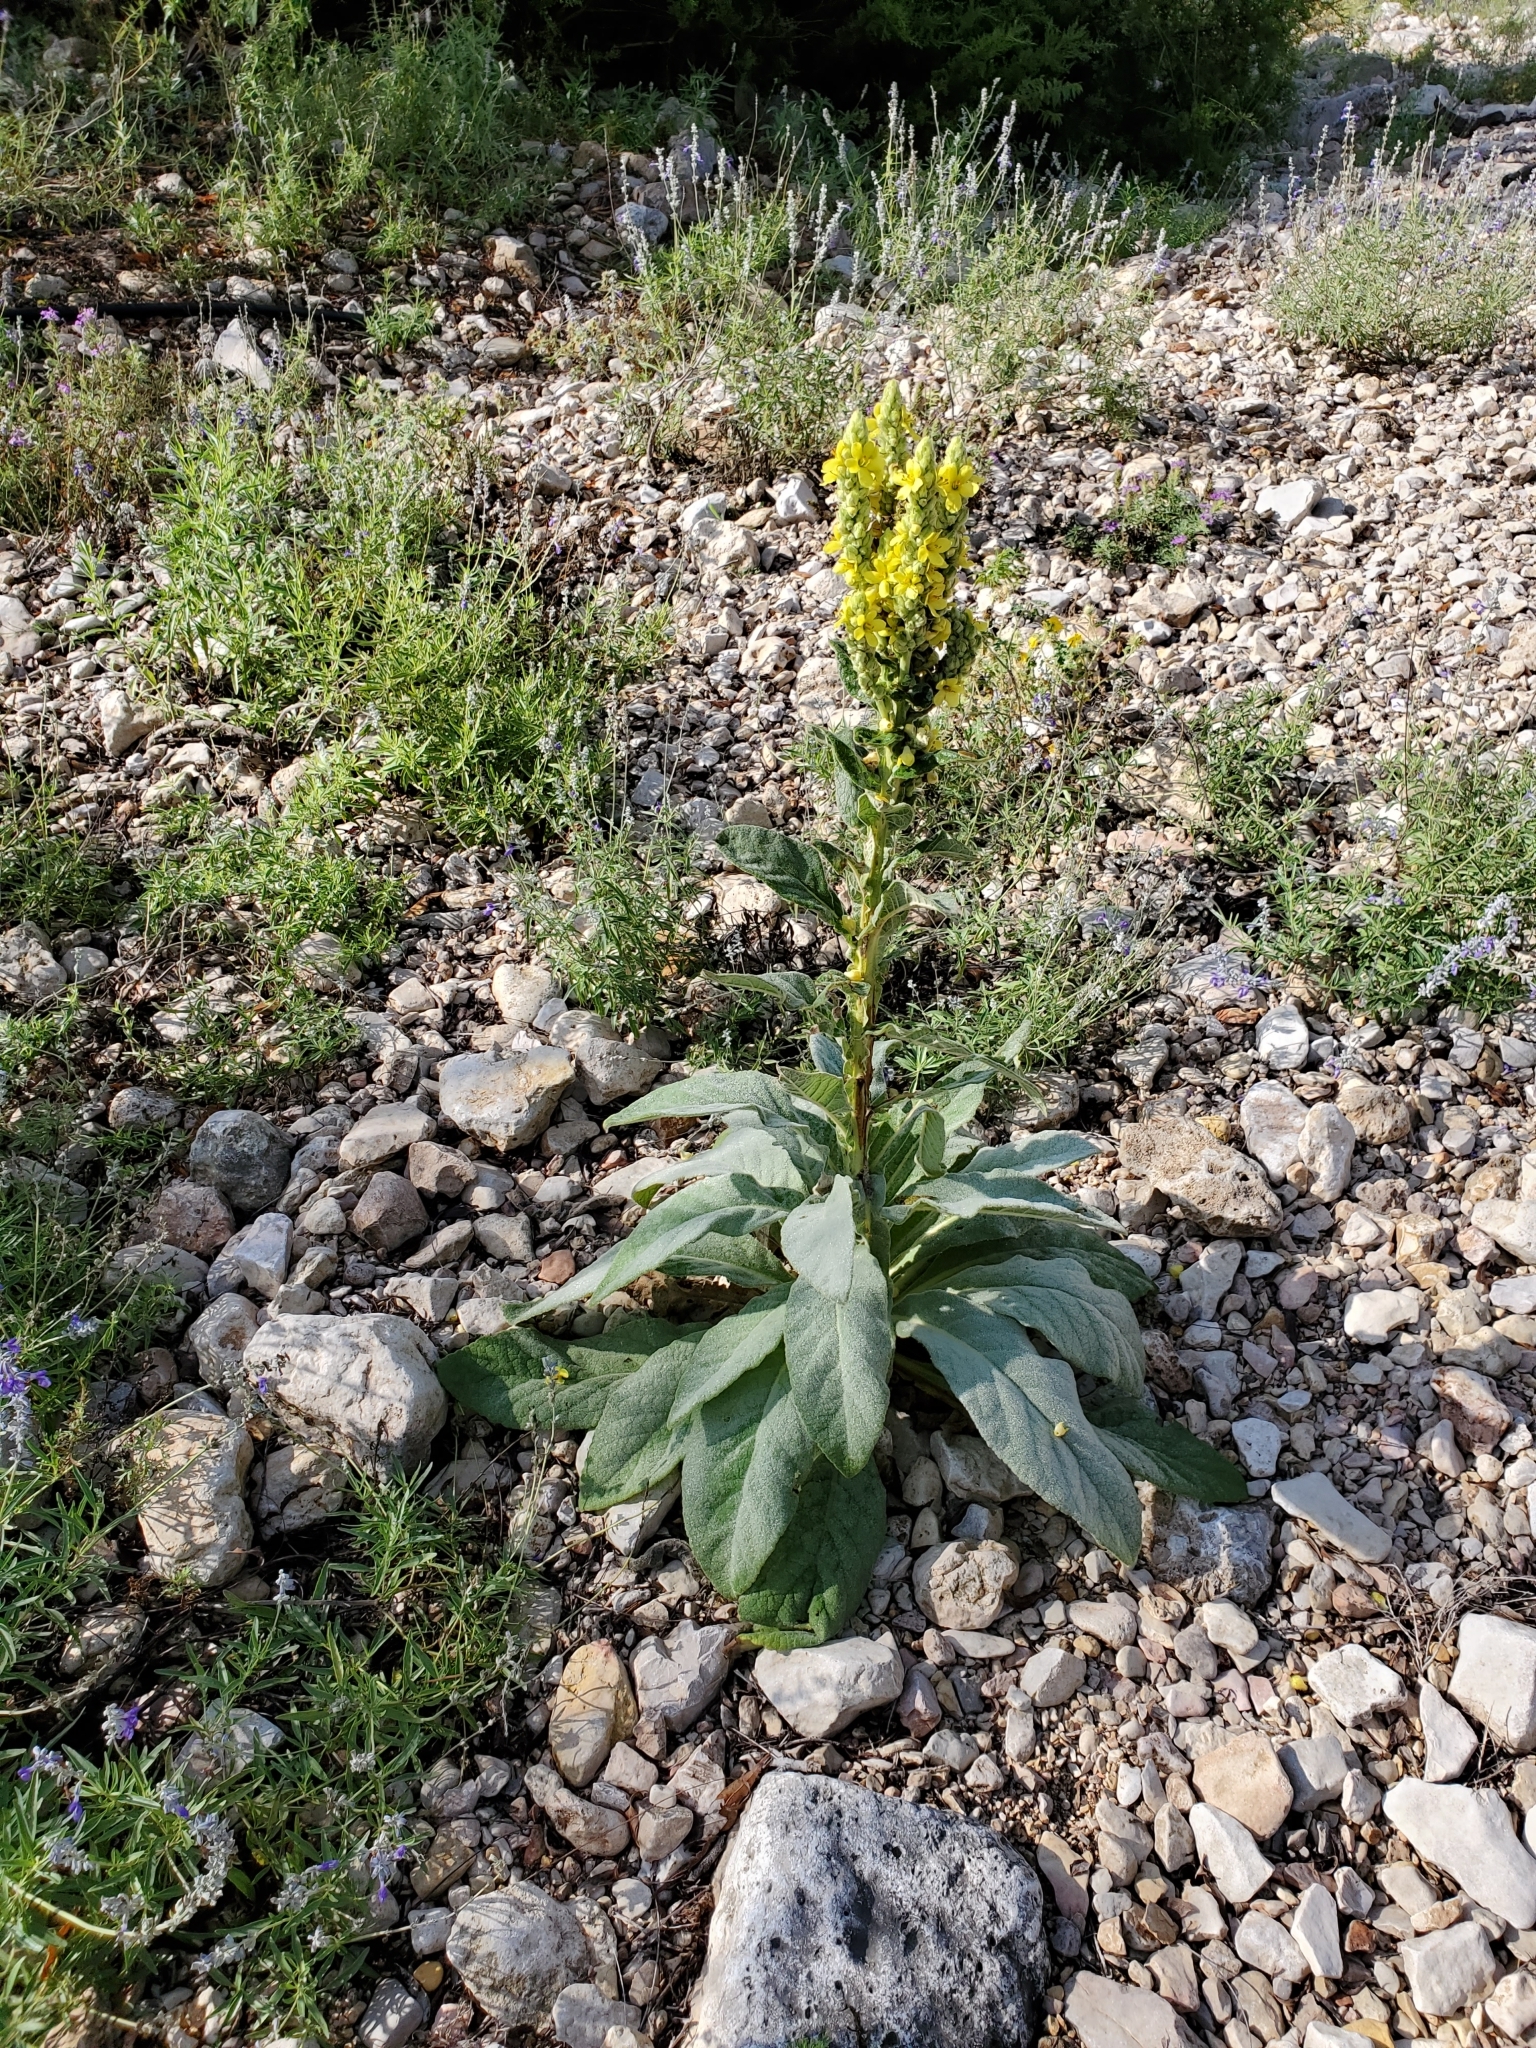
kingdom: Plantae
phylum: Tracheophyta
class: Magnoliopsida
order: Lamiales
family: Scrophulariaceae
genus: Verbascum
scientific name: Verbascum thapsus
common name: Common mullein
